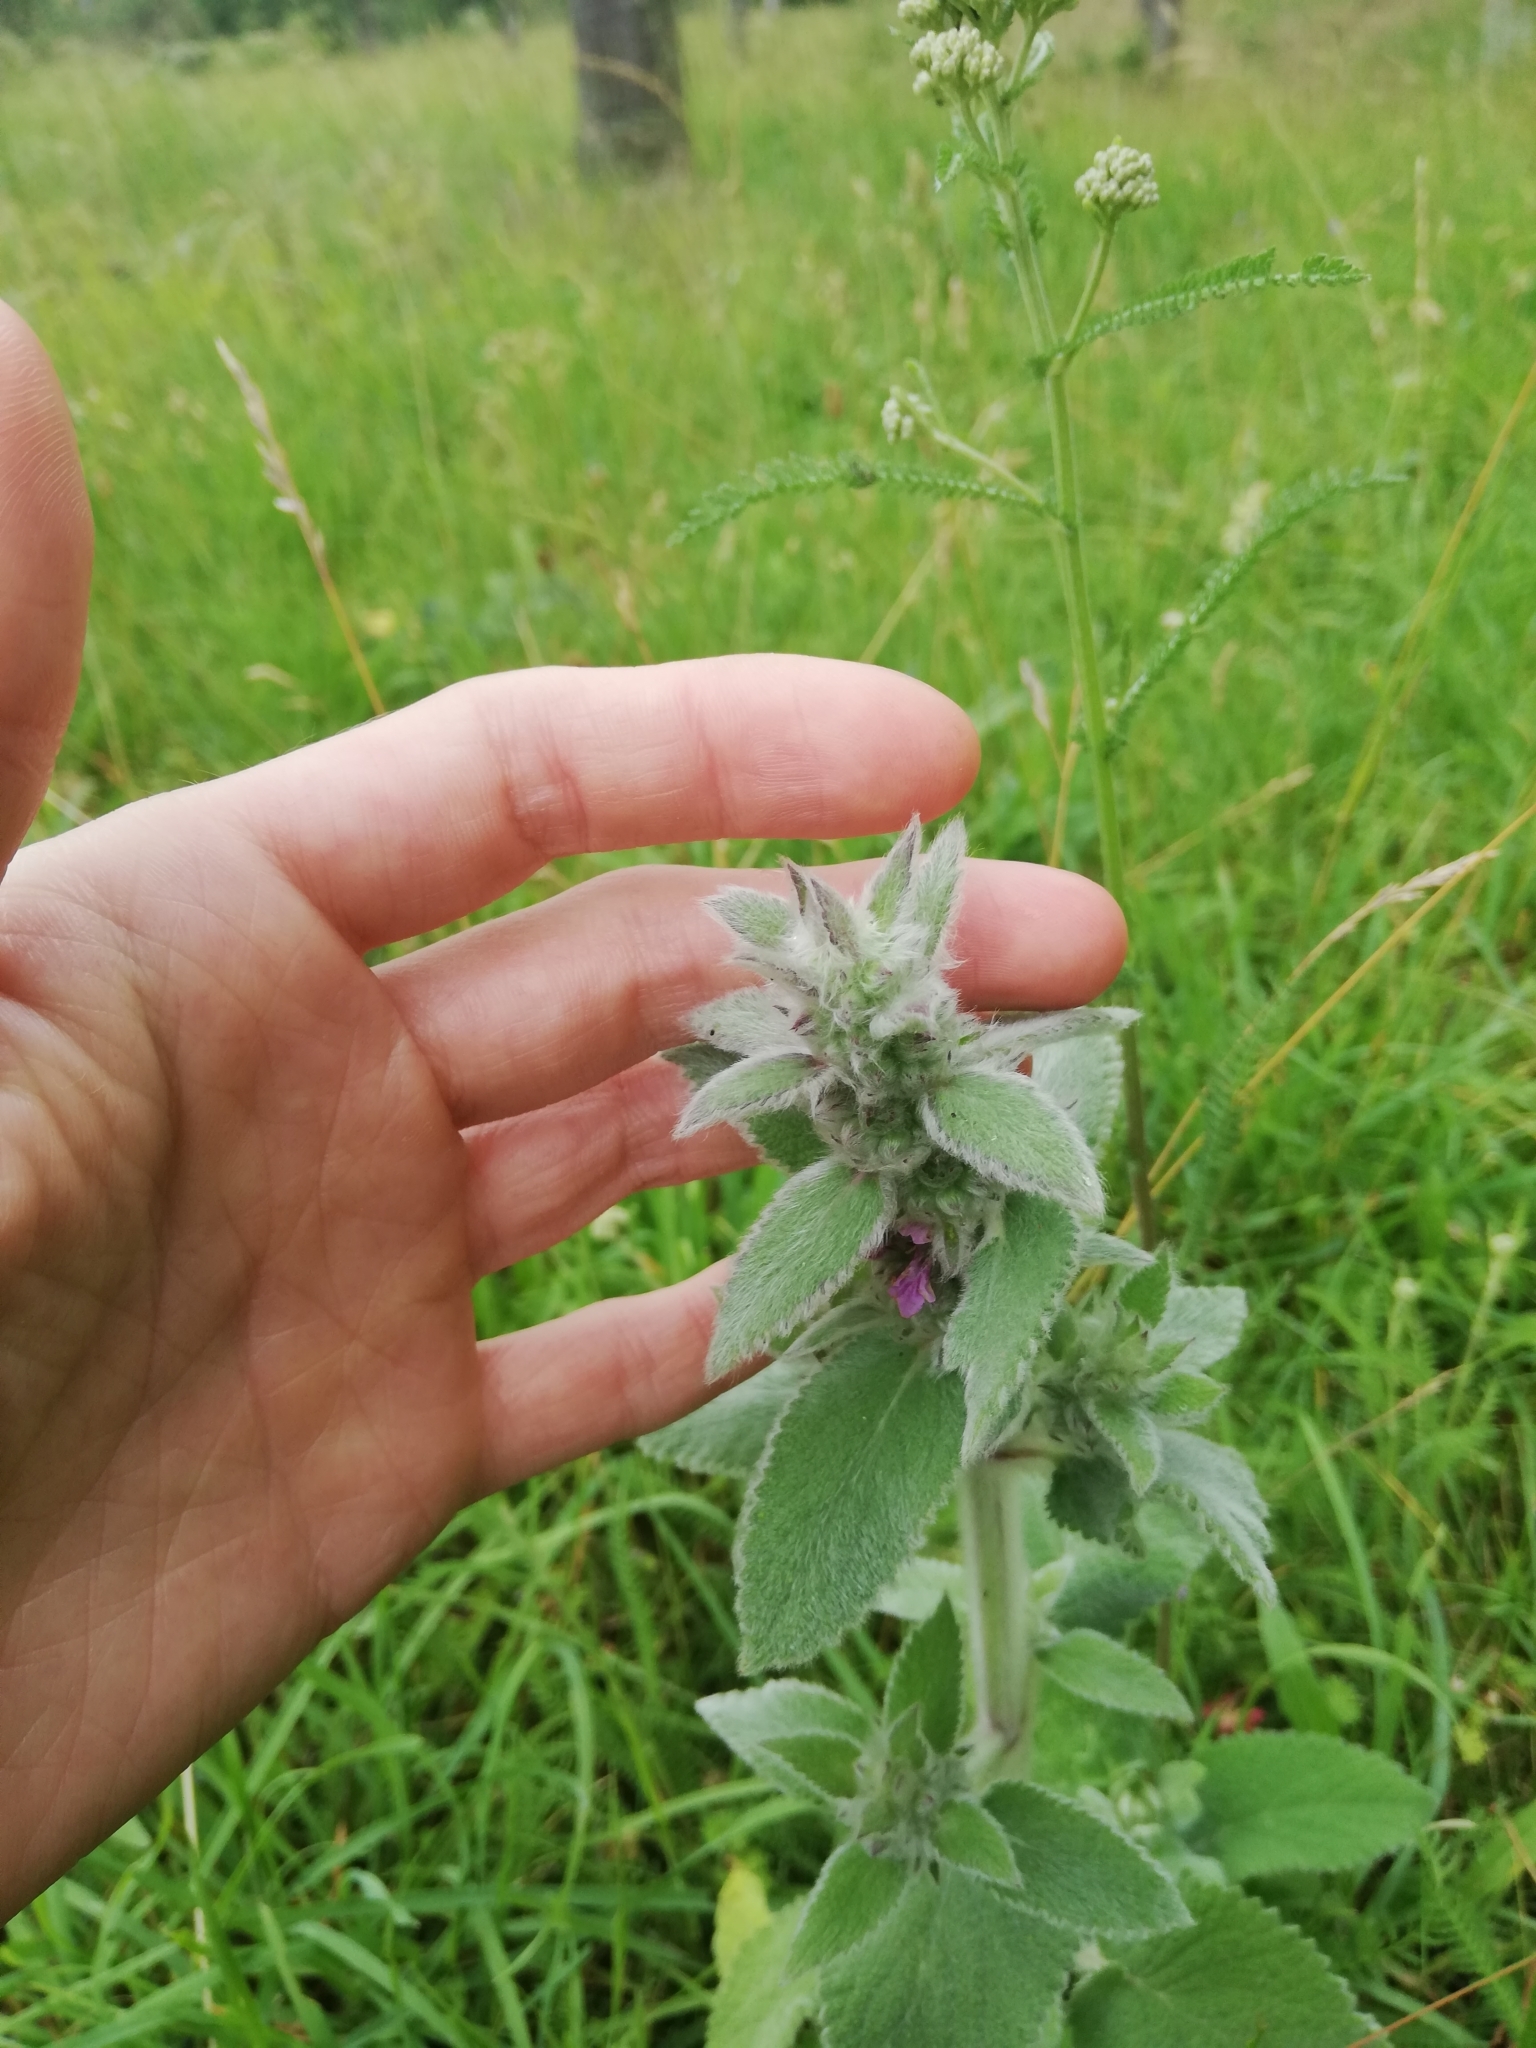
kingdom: Plantae
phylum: Tracheophyta
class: Magnoliopsida
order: Lamiales
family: Lamiaceae
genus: Stachys
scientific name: Stachys germanica
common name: Downy woundwort
